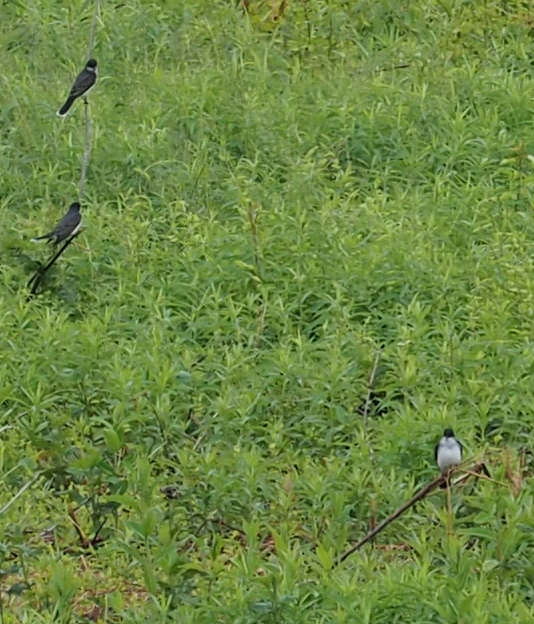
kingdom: Animalia
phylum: Chordata
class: Aves
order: Passeriformes
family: Tyrannidae
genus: Tyrannus
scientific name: Tyrannus tyrannus
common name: Eastern kingbird
